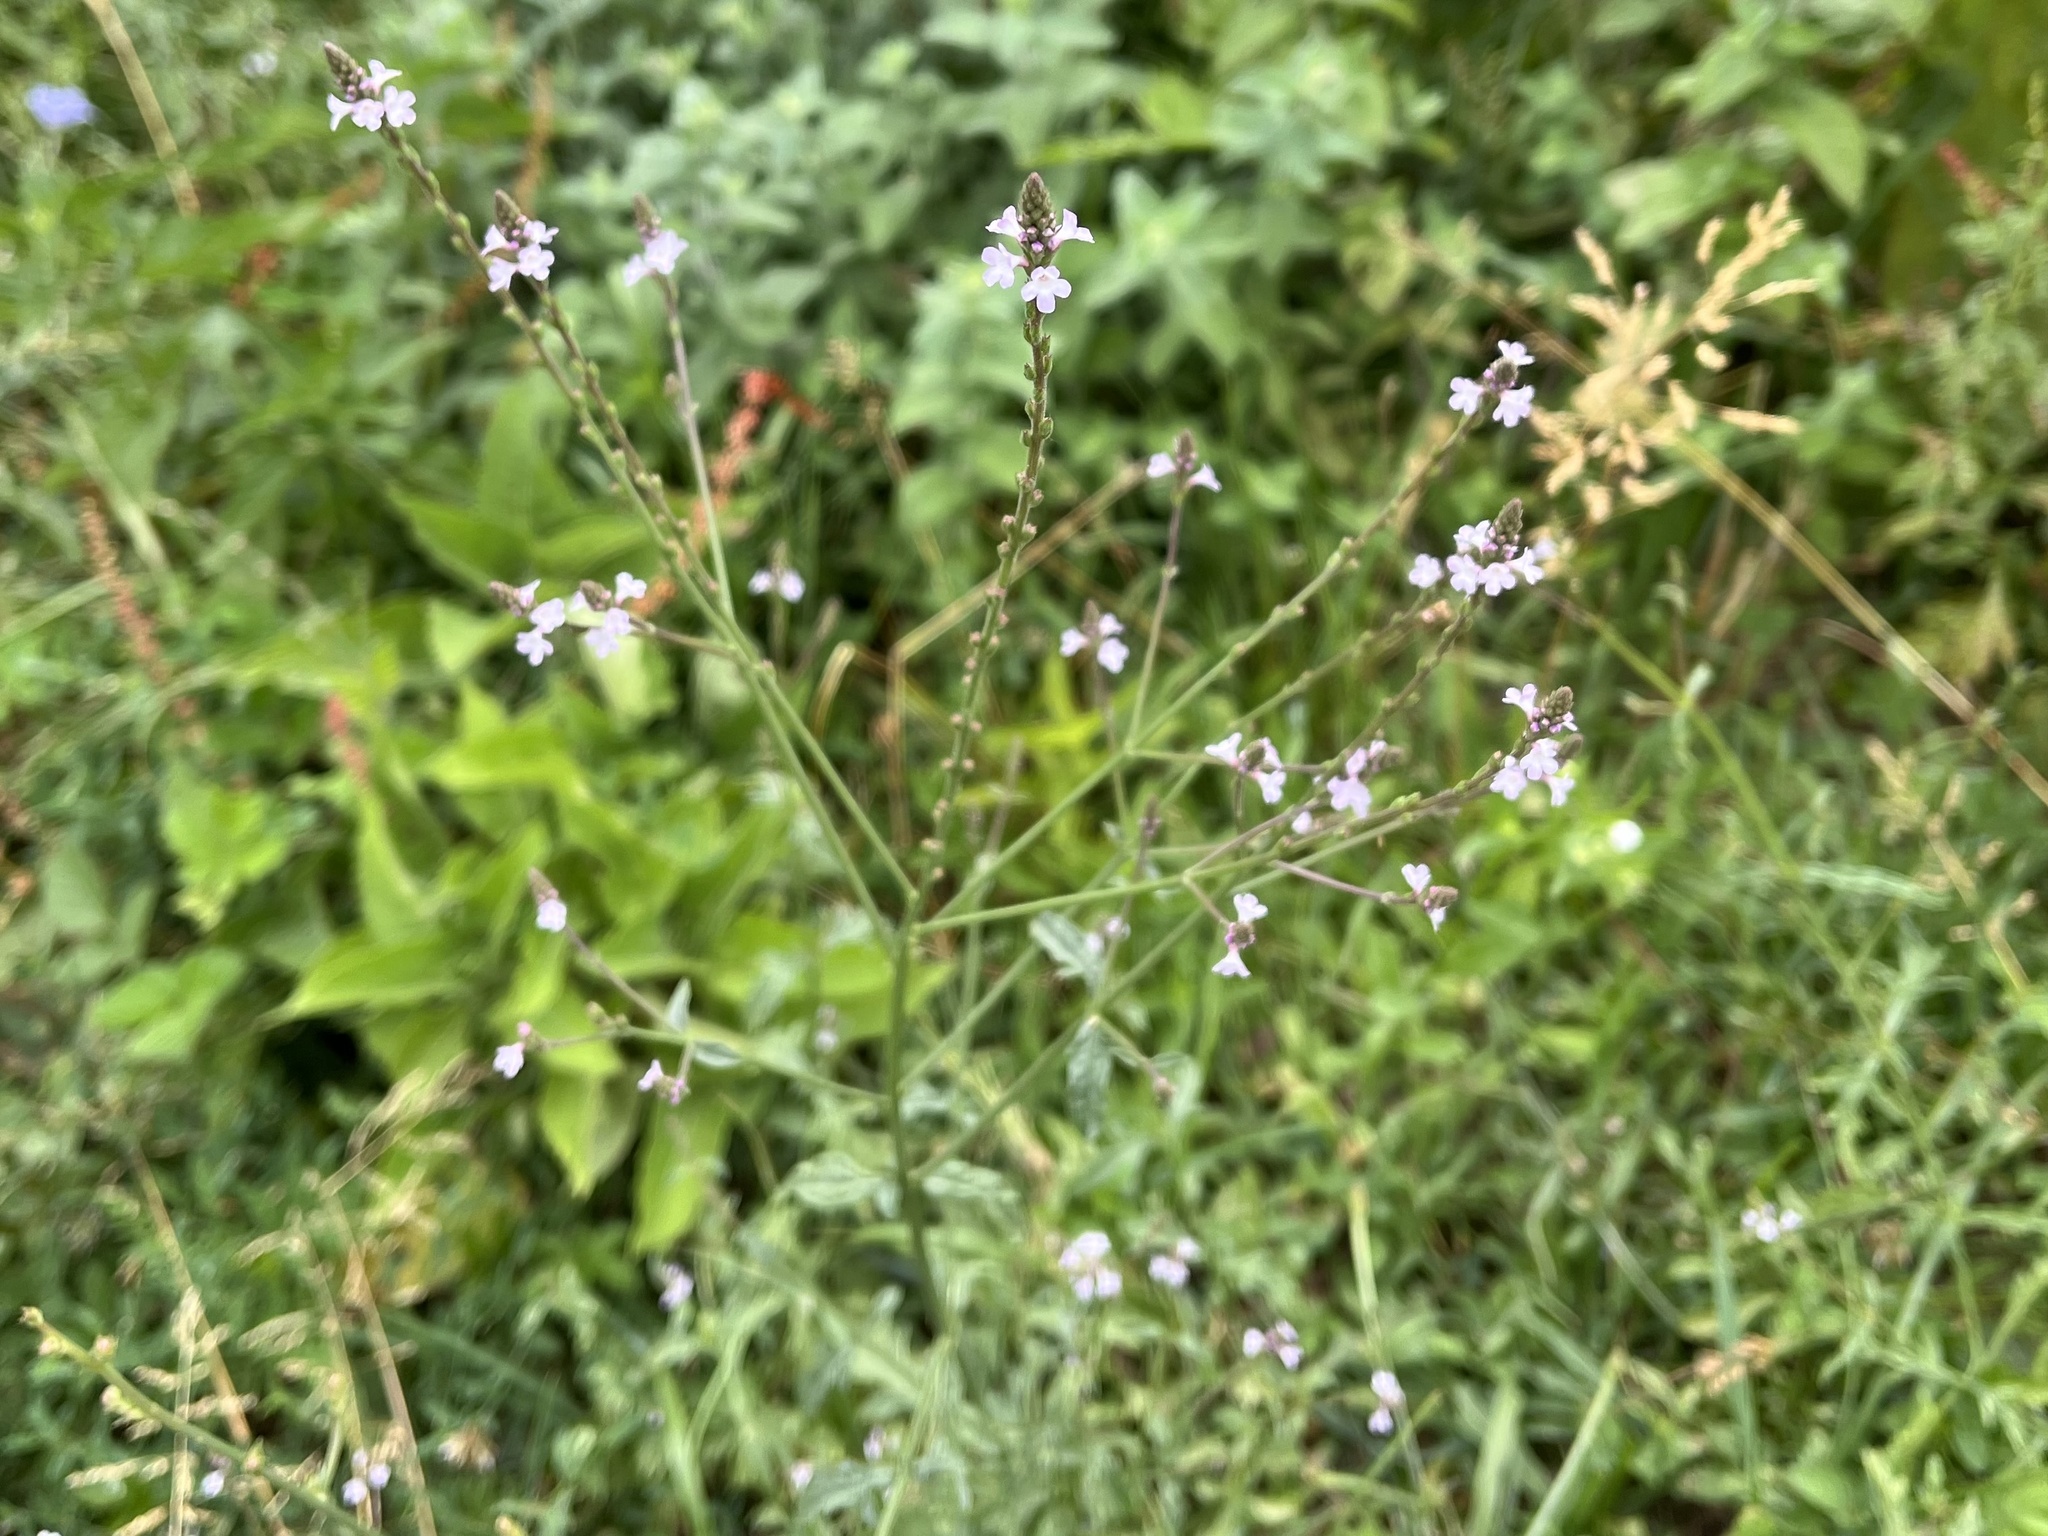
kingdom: Plantae
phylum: Tracheophyta
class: Magnoliopsida
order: Lamiales
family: Verbenaceae
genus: Verbena
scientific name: Verbena officinalis
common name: Vervain
